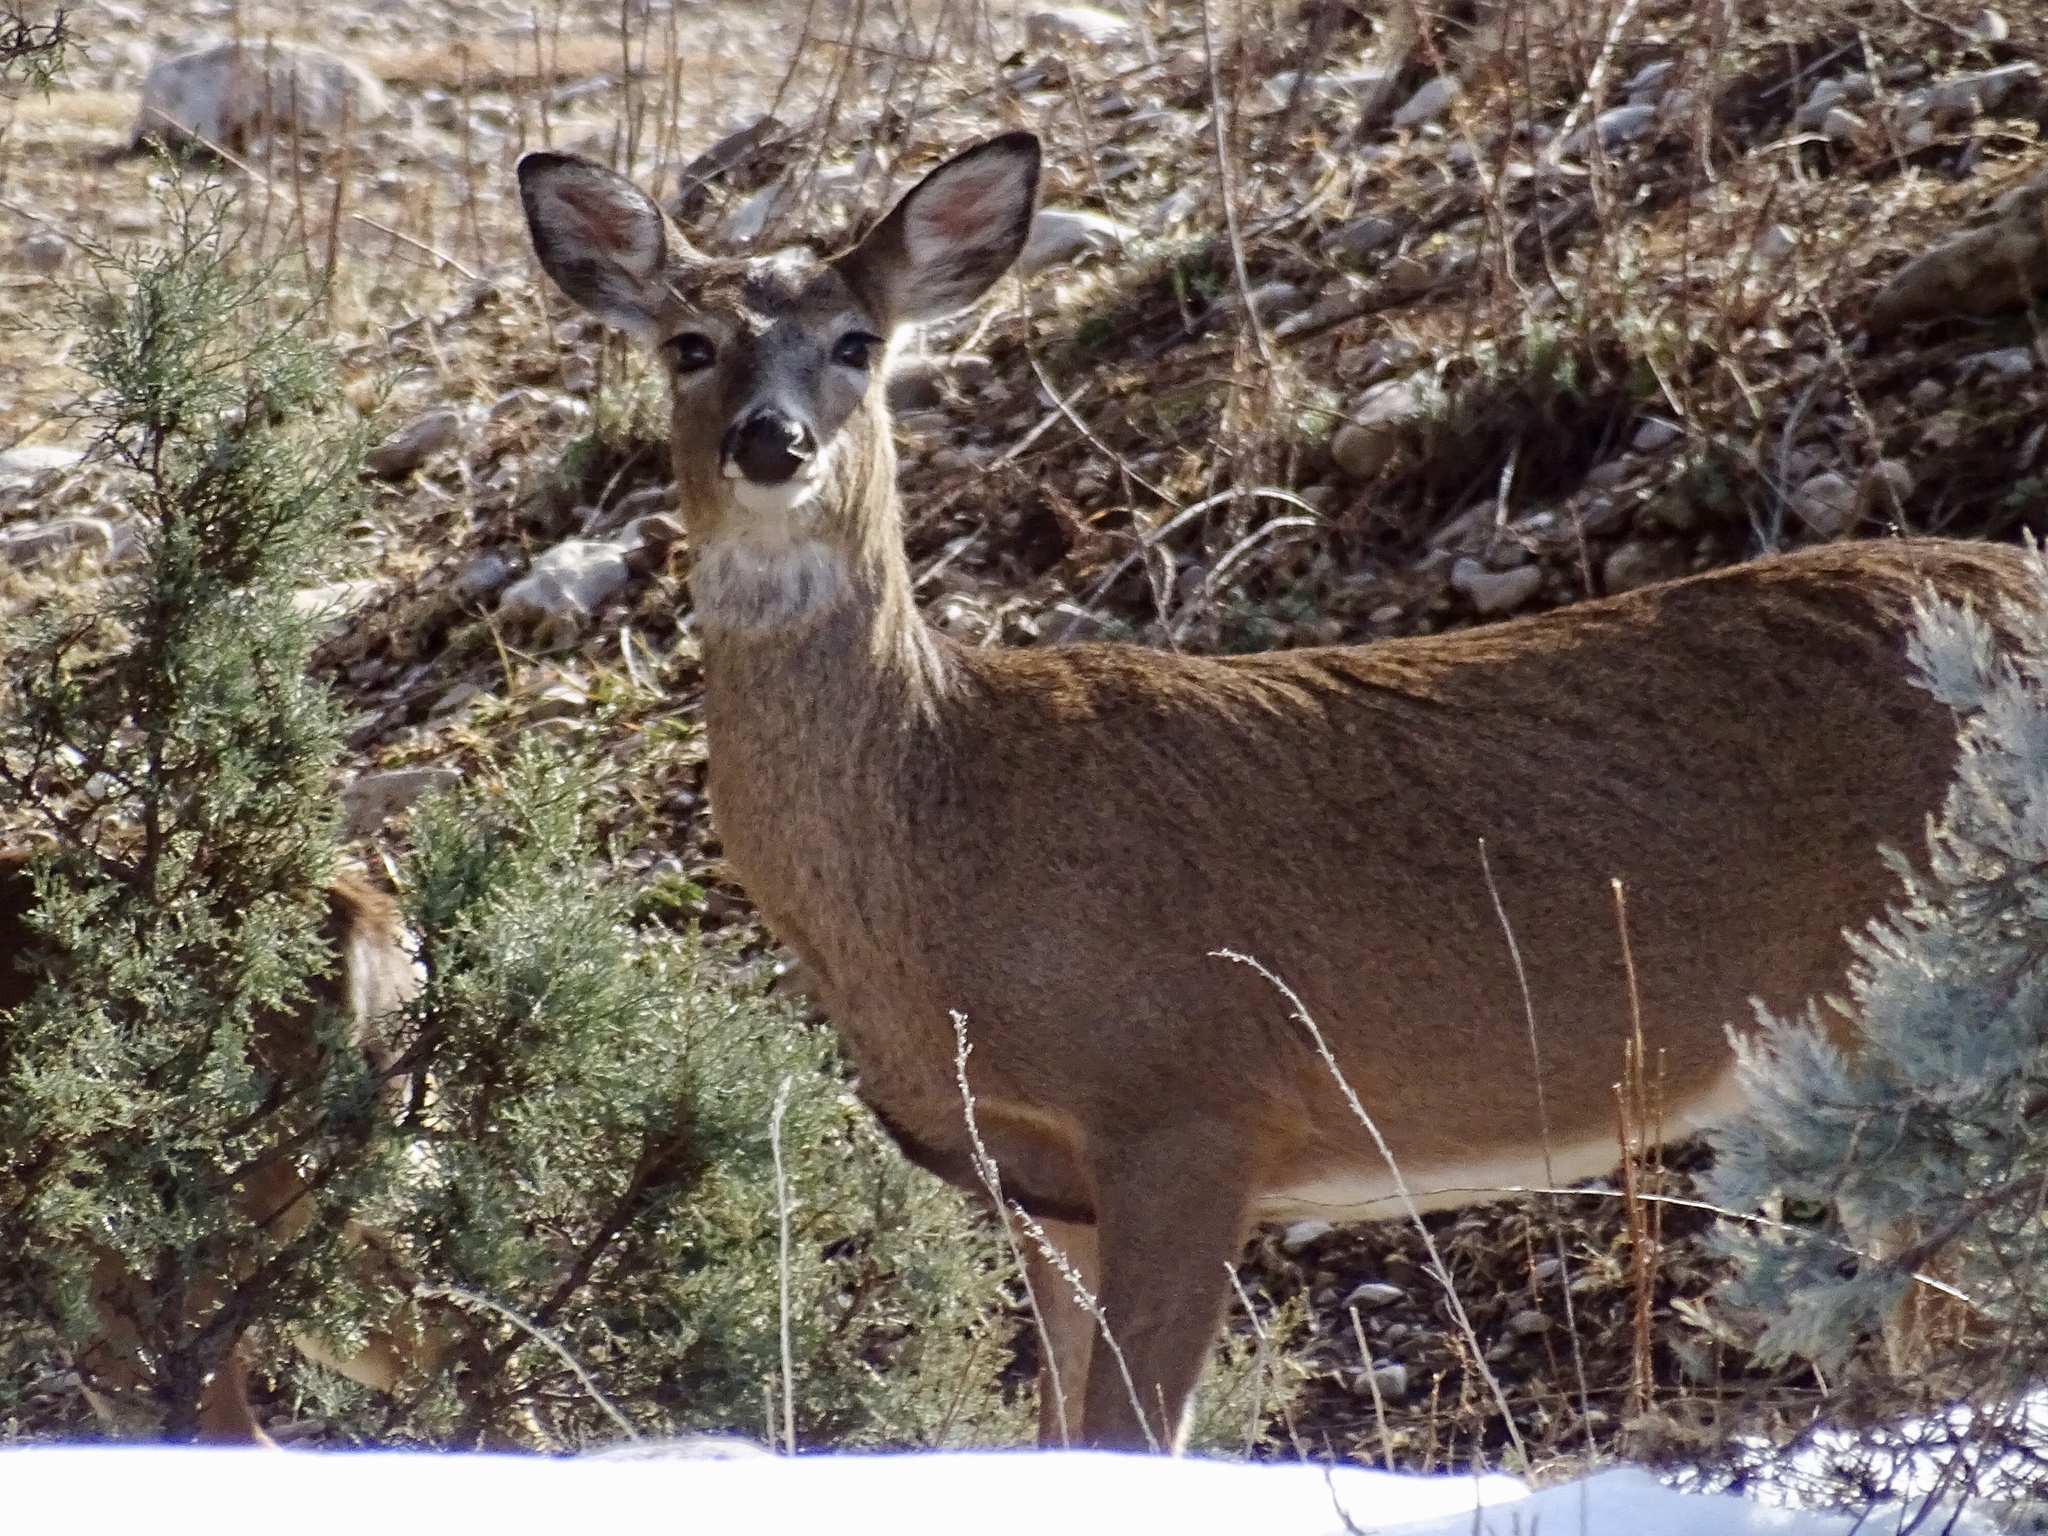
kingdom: Animalia
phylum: Chordata
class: Mammalia
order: Artiodactyla
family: Cervidae
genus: Odocoileus
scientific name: Odocoileus virginianus
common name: White-tailed deer
